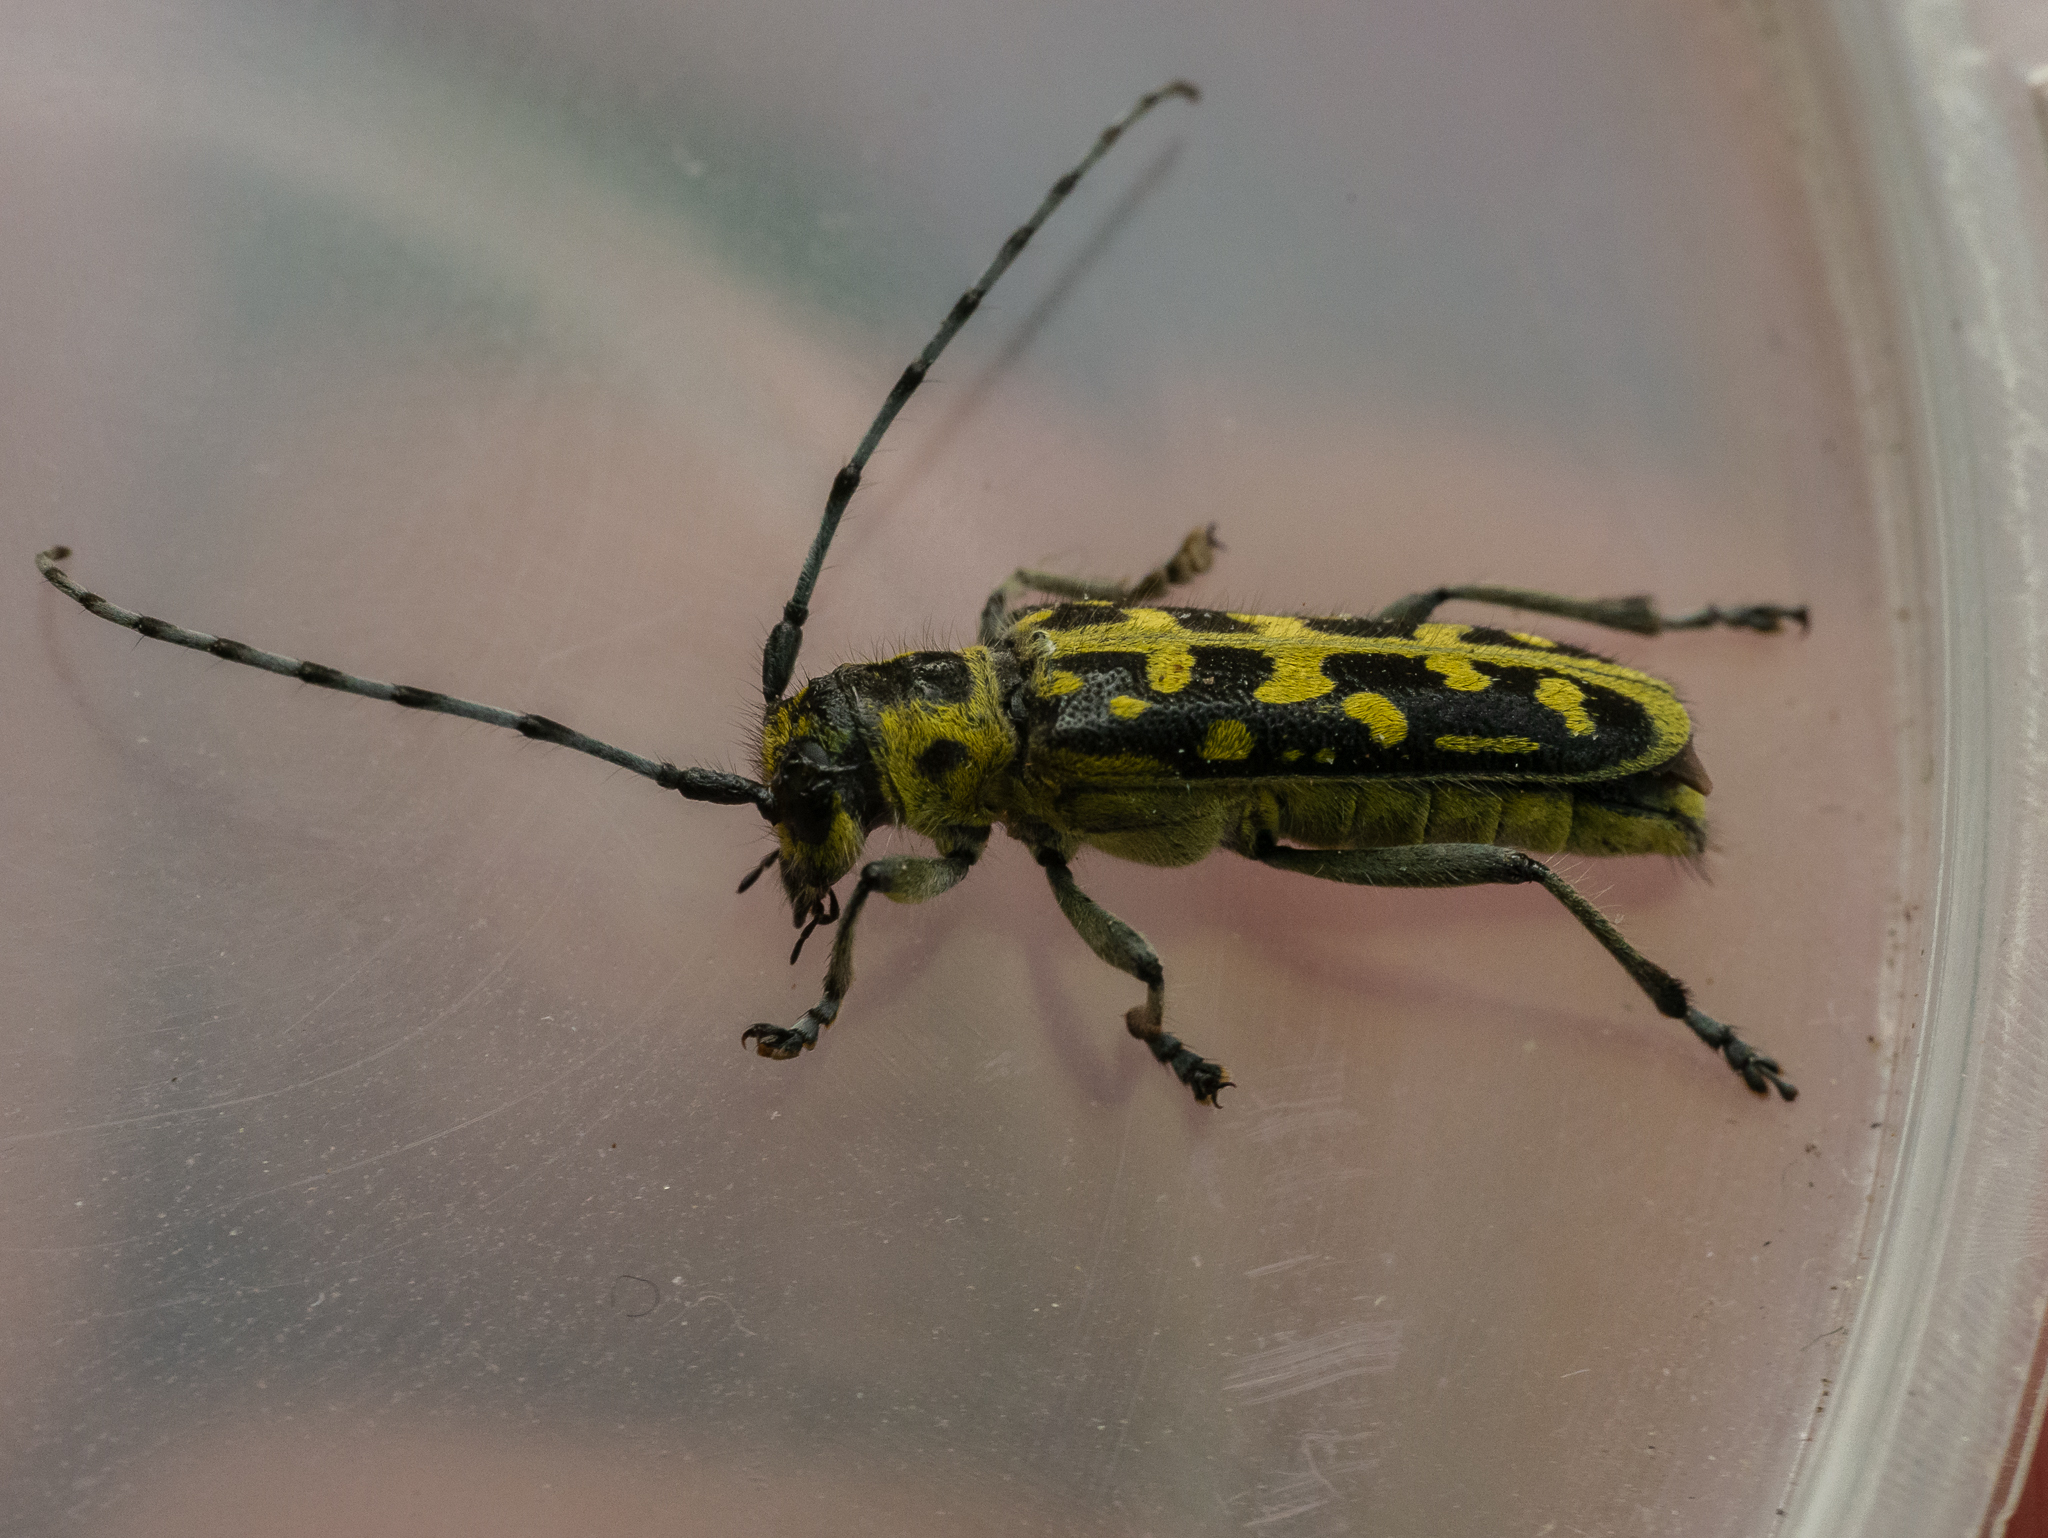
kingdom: Animalia
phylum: Arthropoda
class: Insecta
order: Coleoptera
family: Cerambycidae
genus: Saperda
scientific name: Saperda scalaris
